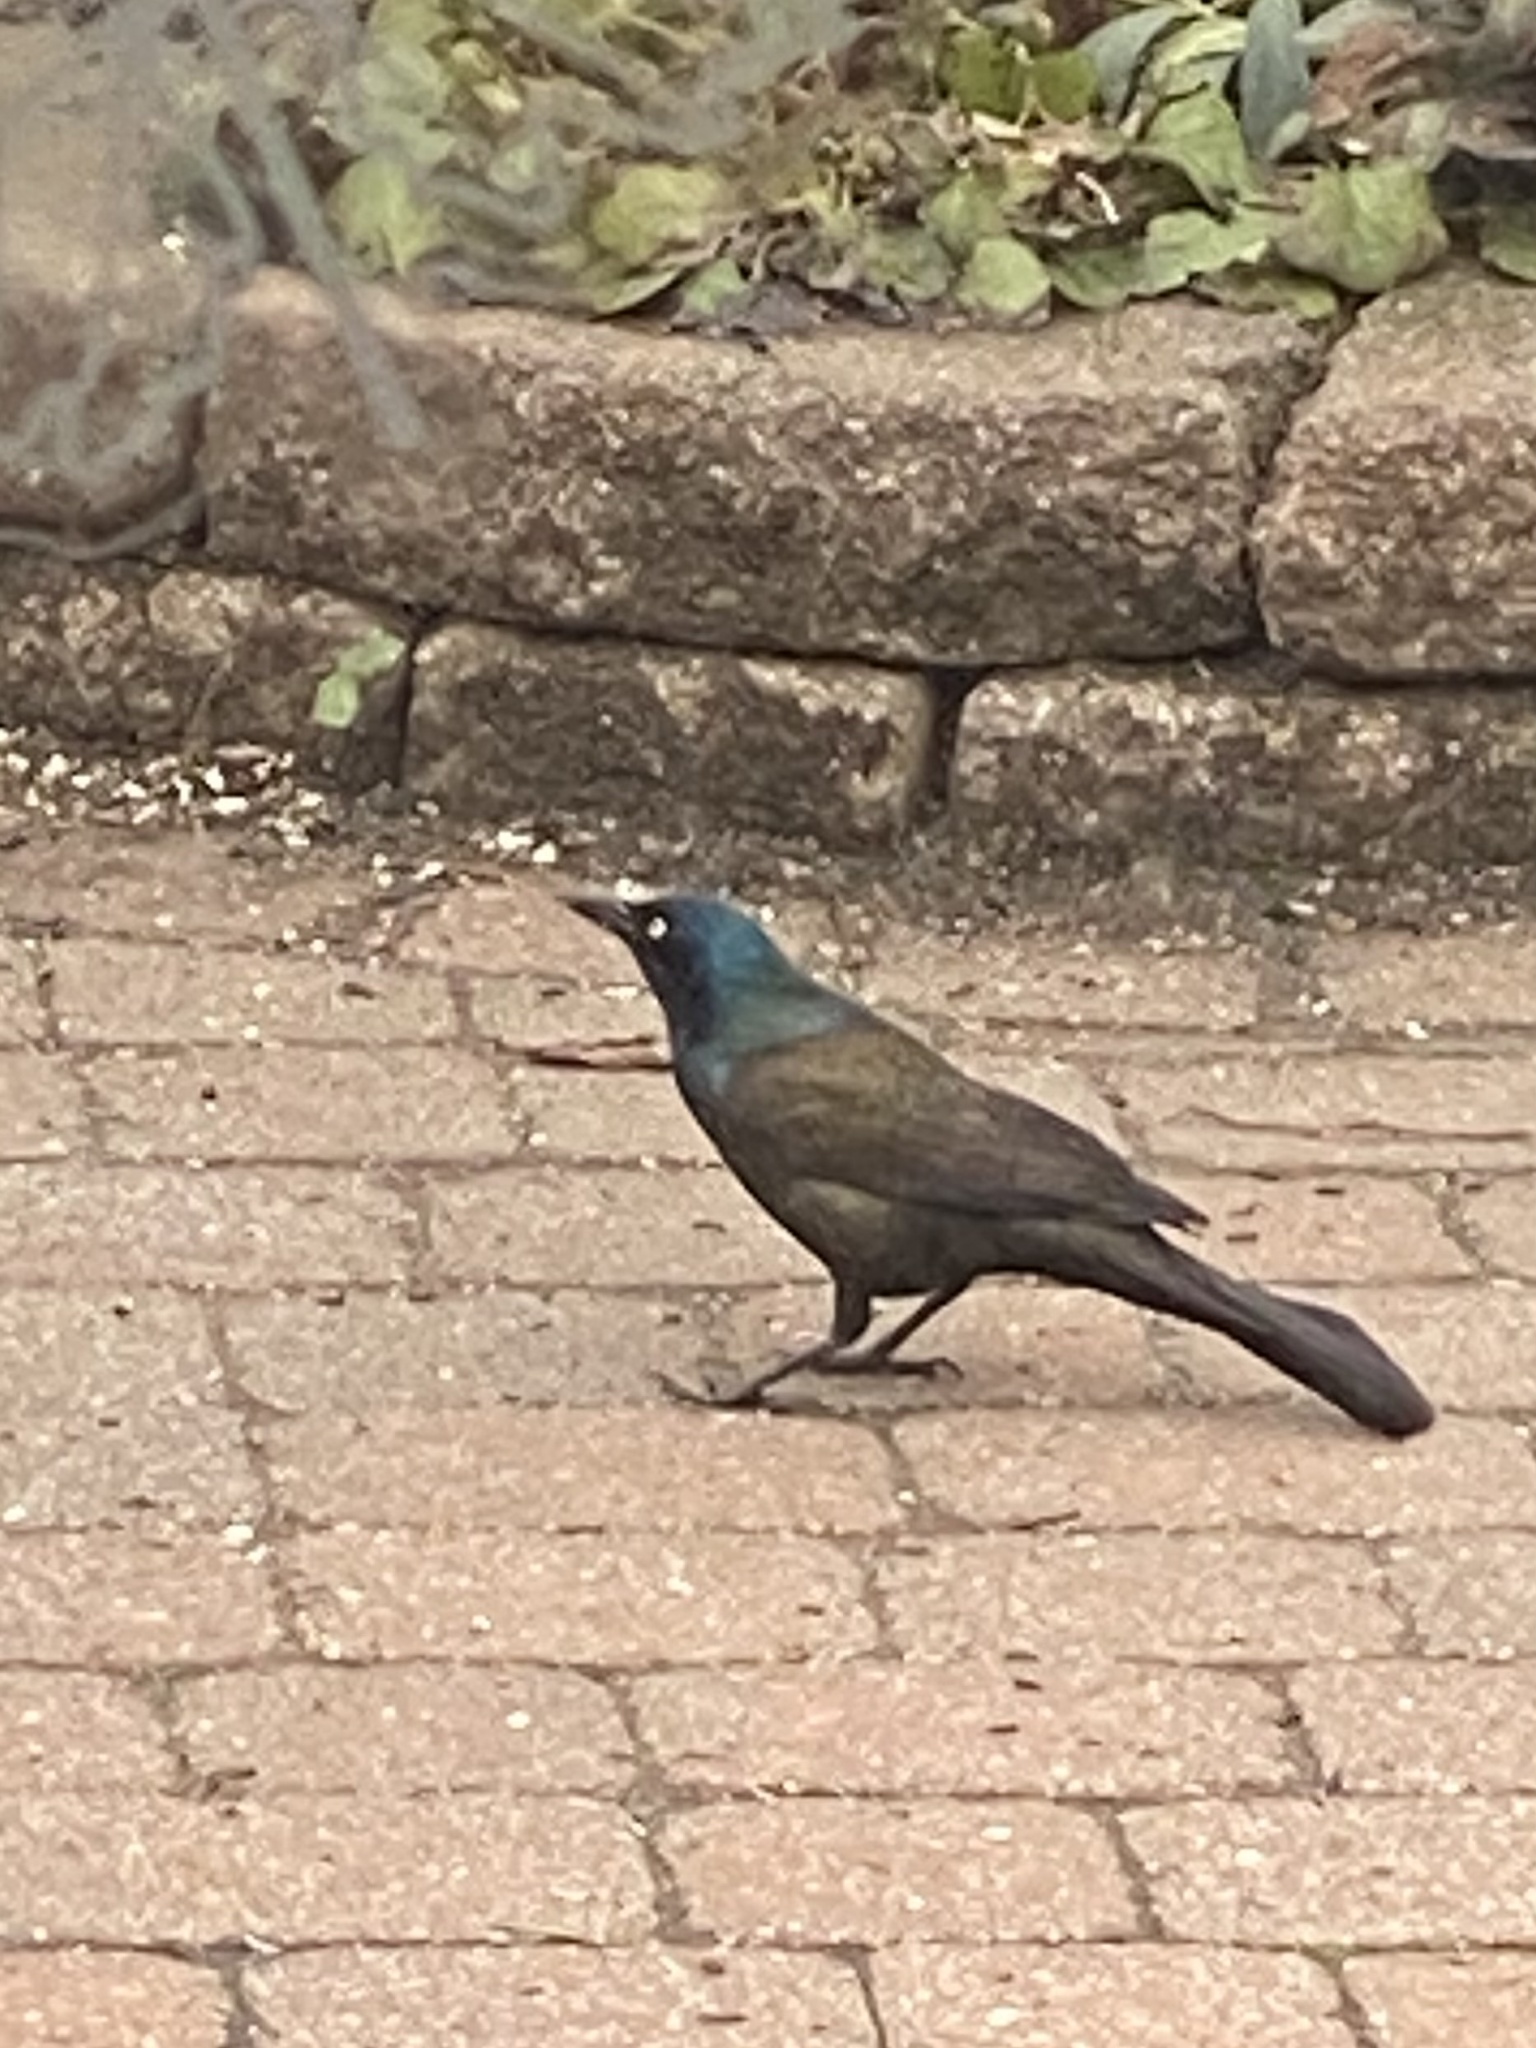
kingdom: Animalia
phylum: Chordata
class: Aves
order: Passeriformes
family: Icteridae
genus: Quiscalus
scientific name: Quiscalus quiscula
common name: Common grackle
